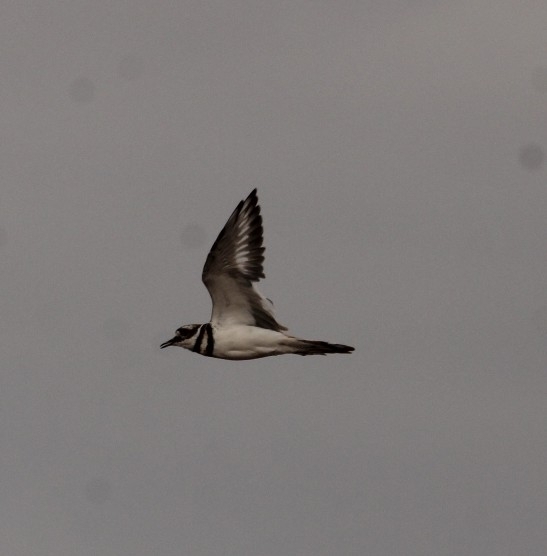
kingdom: Animalia
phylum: Chordata
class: Aves
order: Charadriiformes
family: Charadriidae
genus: Charadrius
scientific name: Charadrius vociferus
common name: Killdeer
